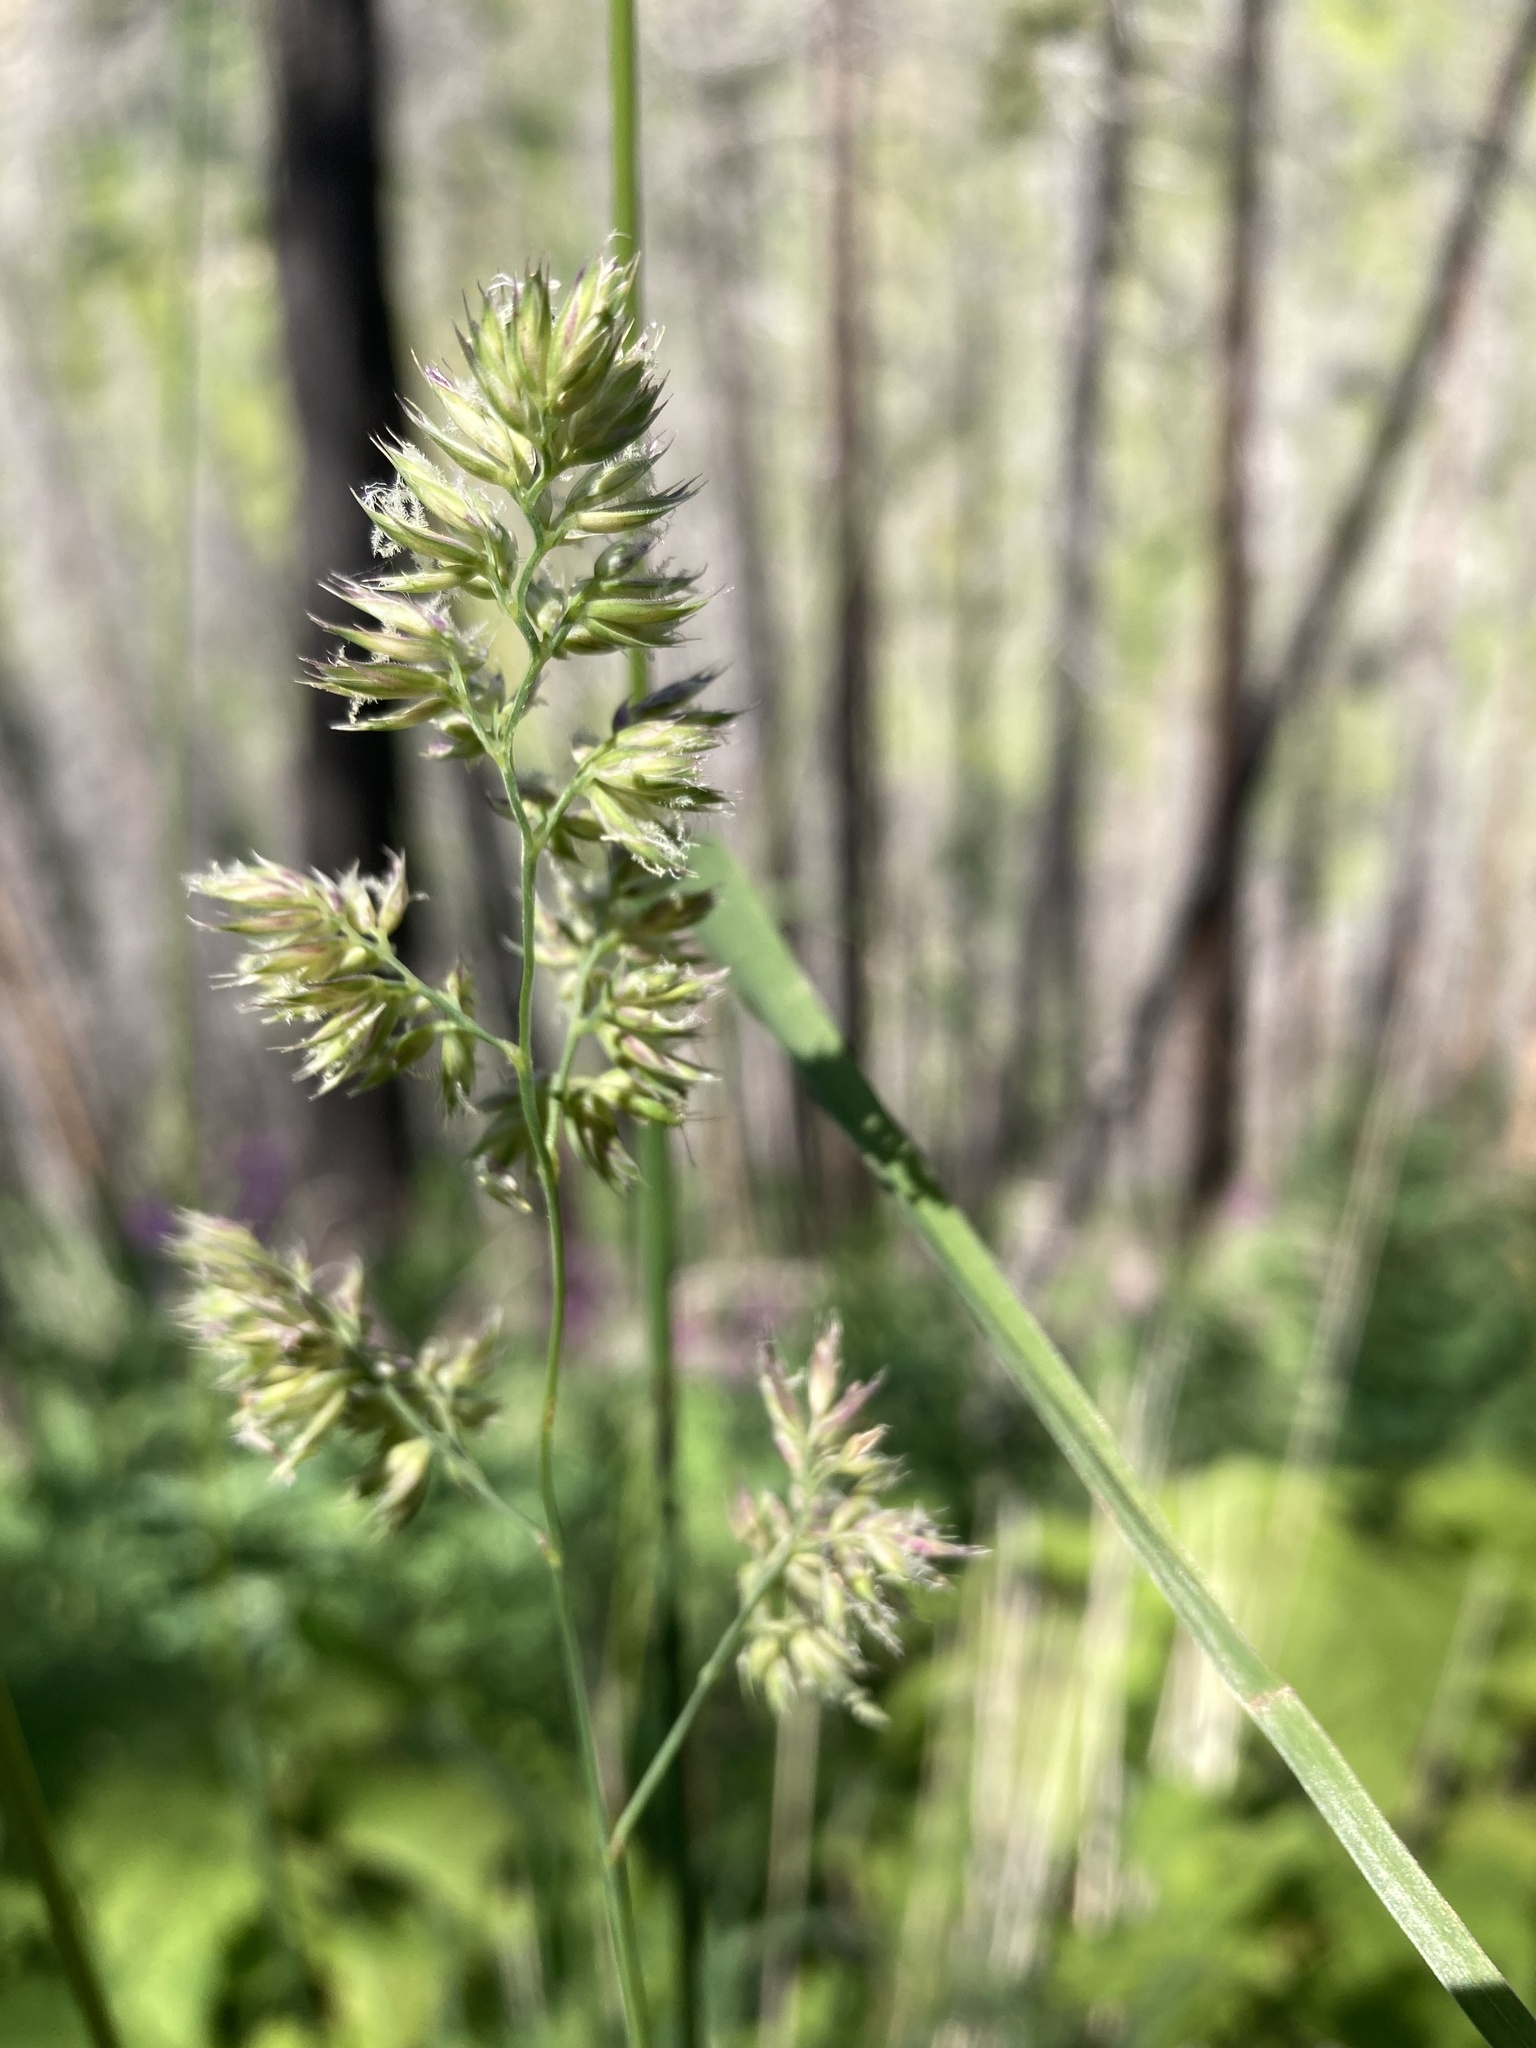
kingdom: Plantae
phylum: Tracheophyta
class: Liliopsida
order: Poales
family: Poaceae
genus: Dactylis
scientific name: Dactylis glomerata
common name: Orchardgrass
